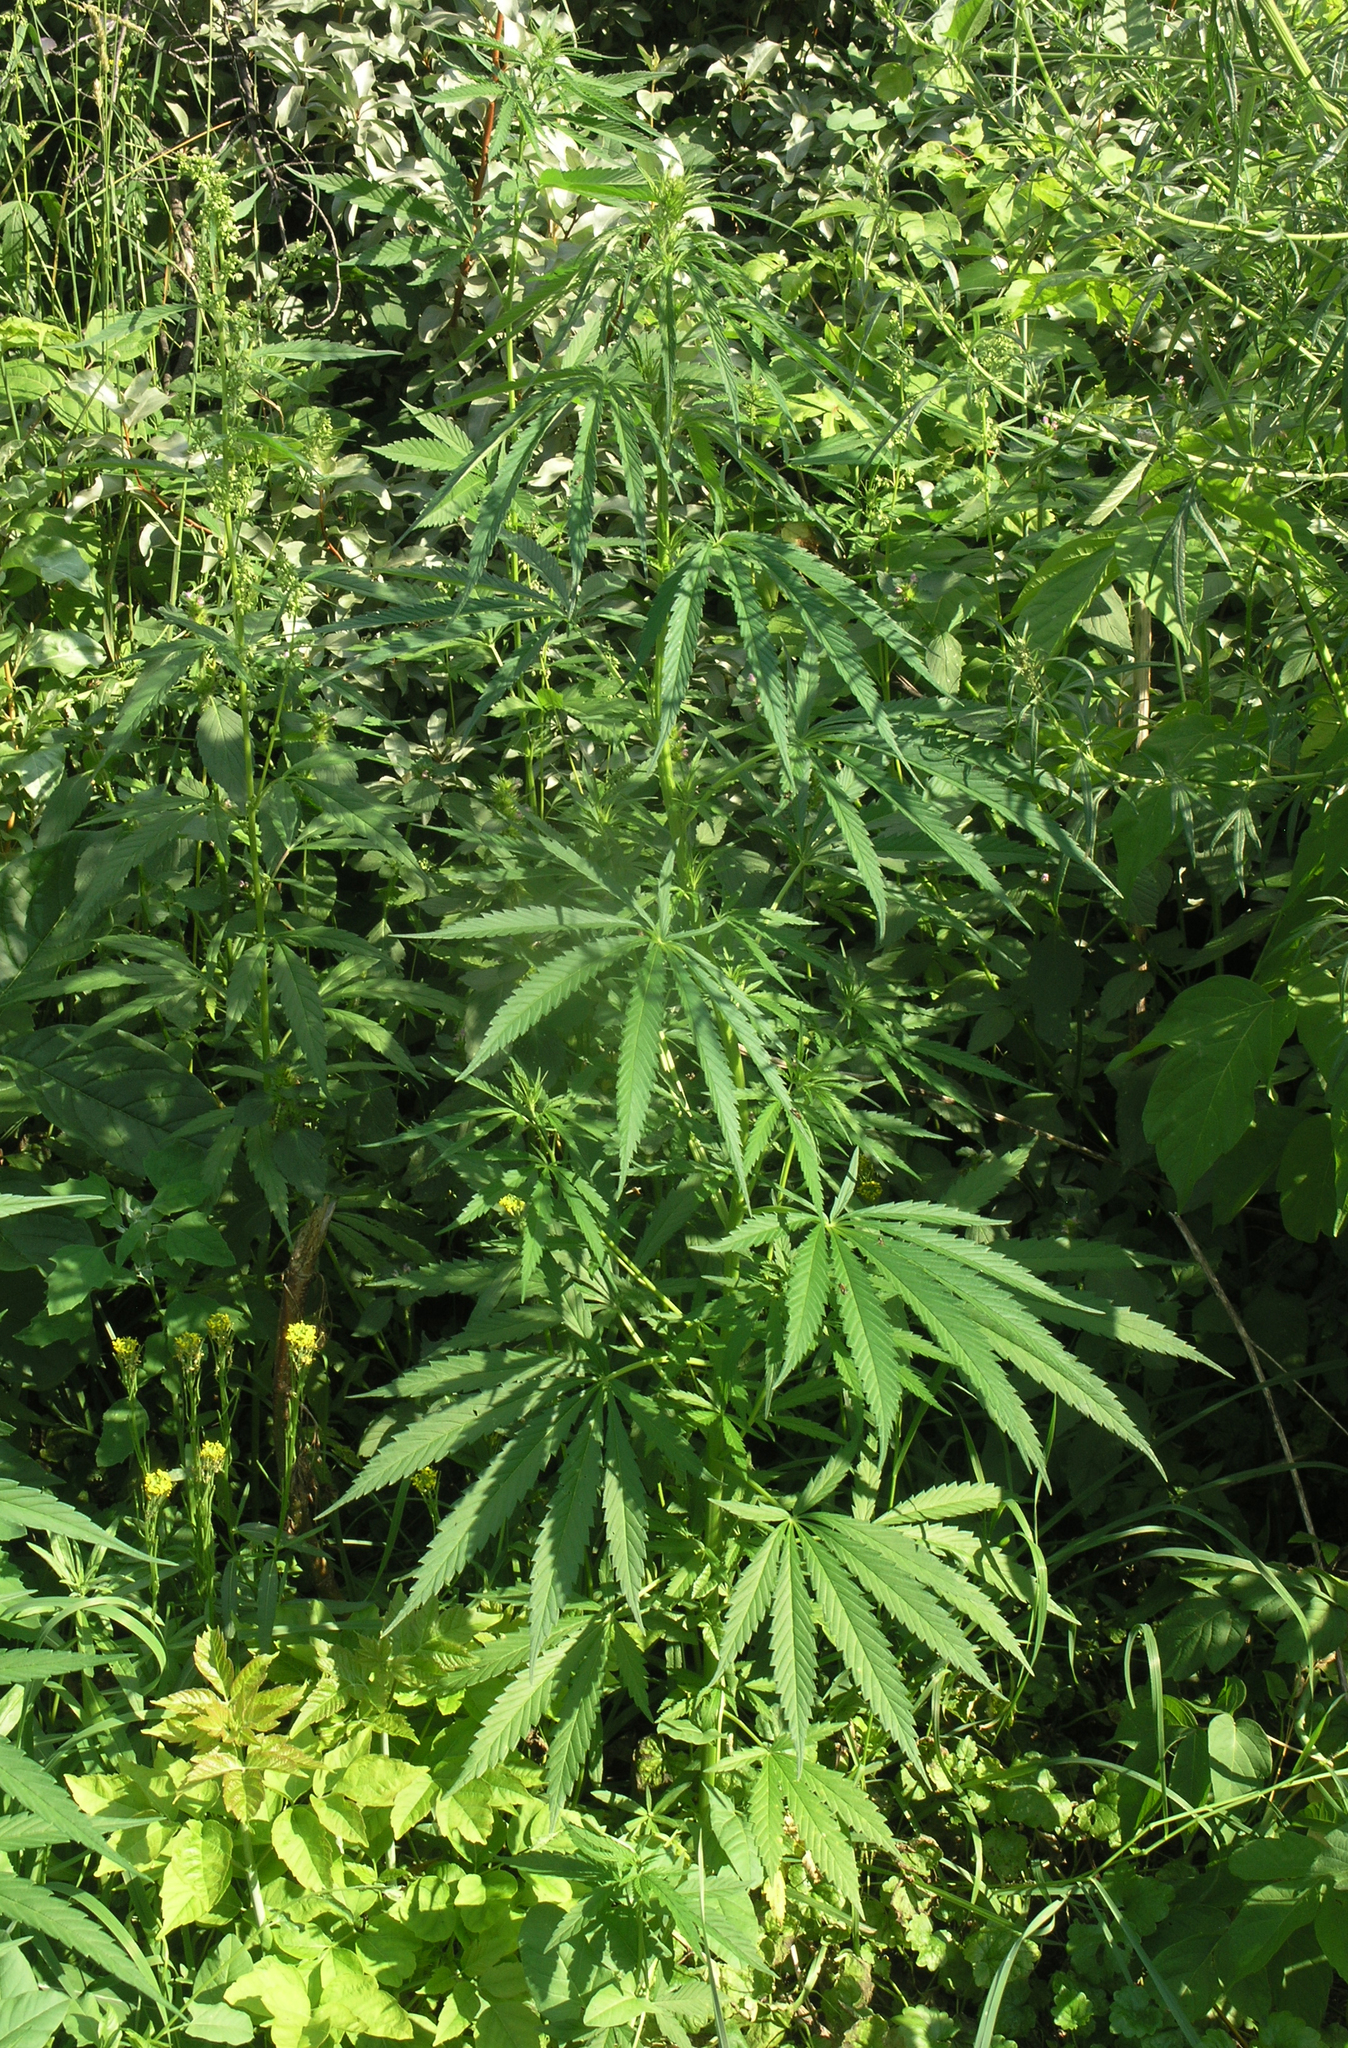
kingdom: Plantae
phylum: Tracheophyta
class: Magnoliopsida
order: Rosales
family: Cannabaceae
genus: Cannabis
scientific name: Cannabis sativa
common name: Hemp
